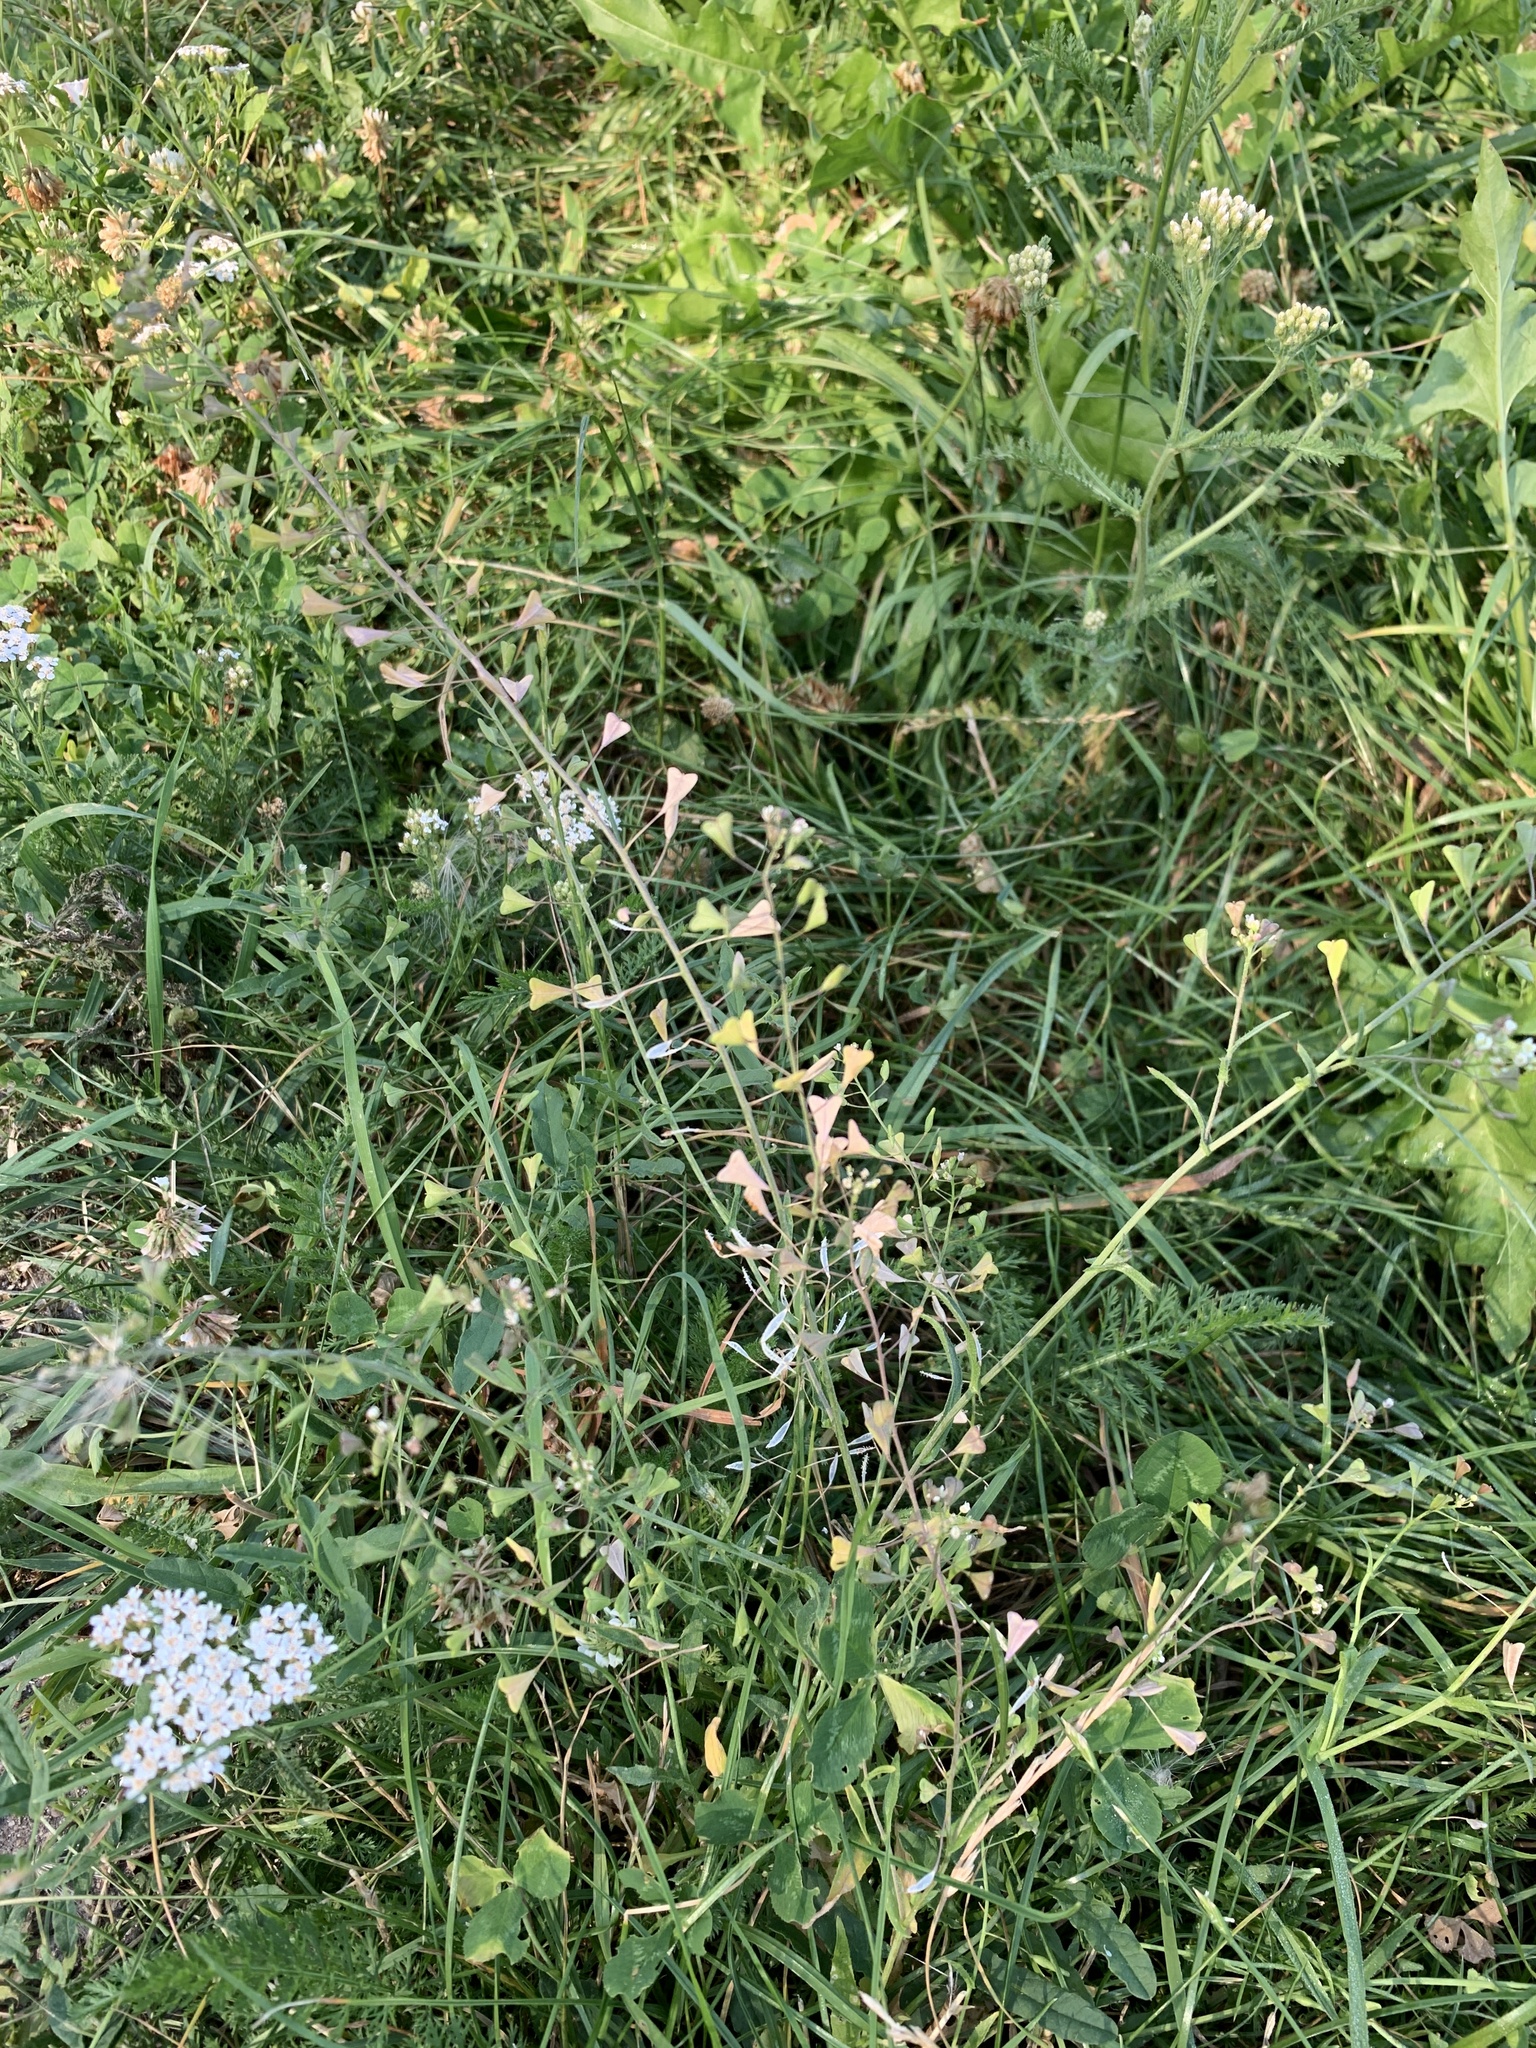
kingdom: Plantae
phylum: Tracheophyta
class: Magnoliopsida
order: Brassicales
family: Brassicaceae
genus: Capsella
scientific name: Capsella bursa-pastoris
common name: Shepherd's purse
